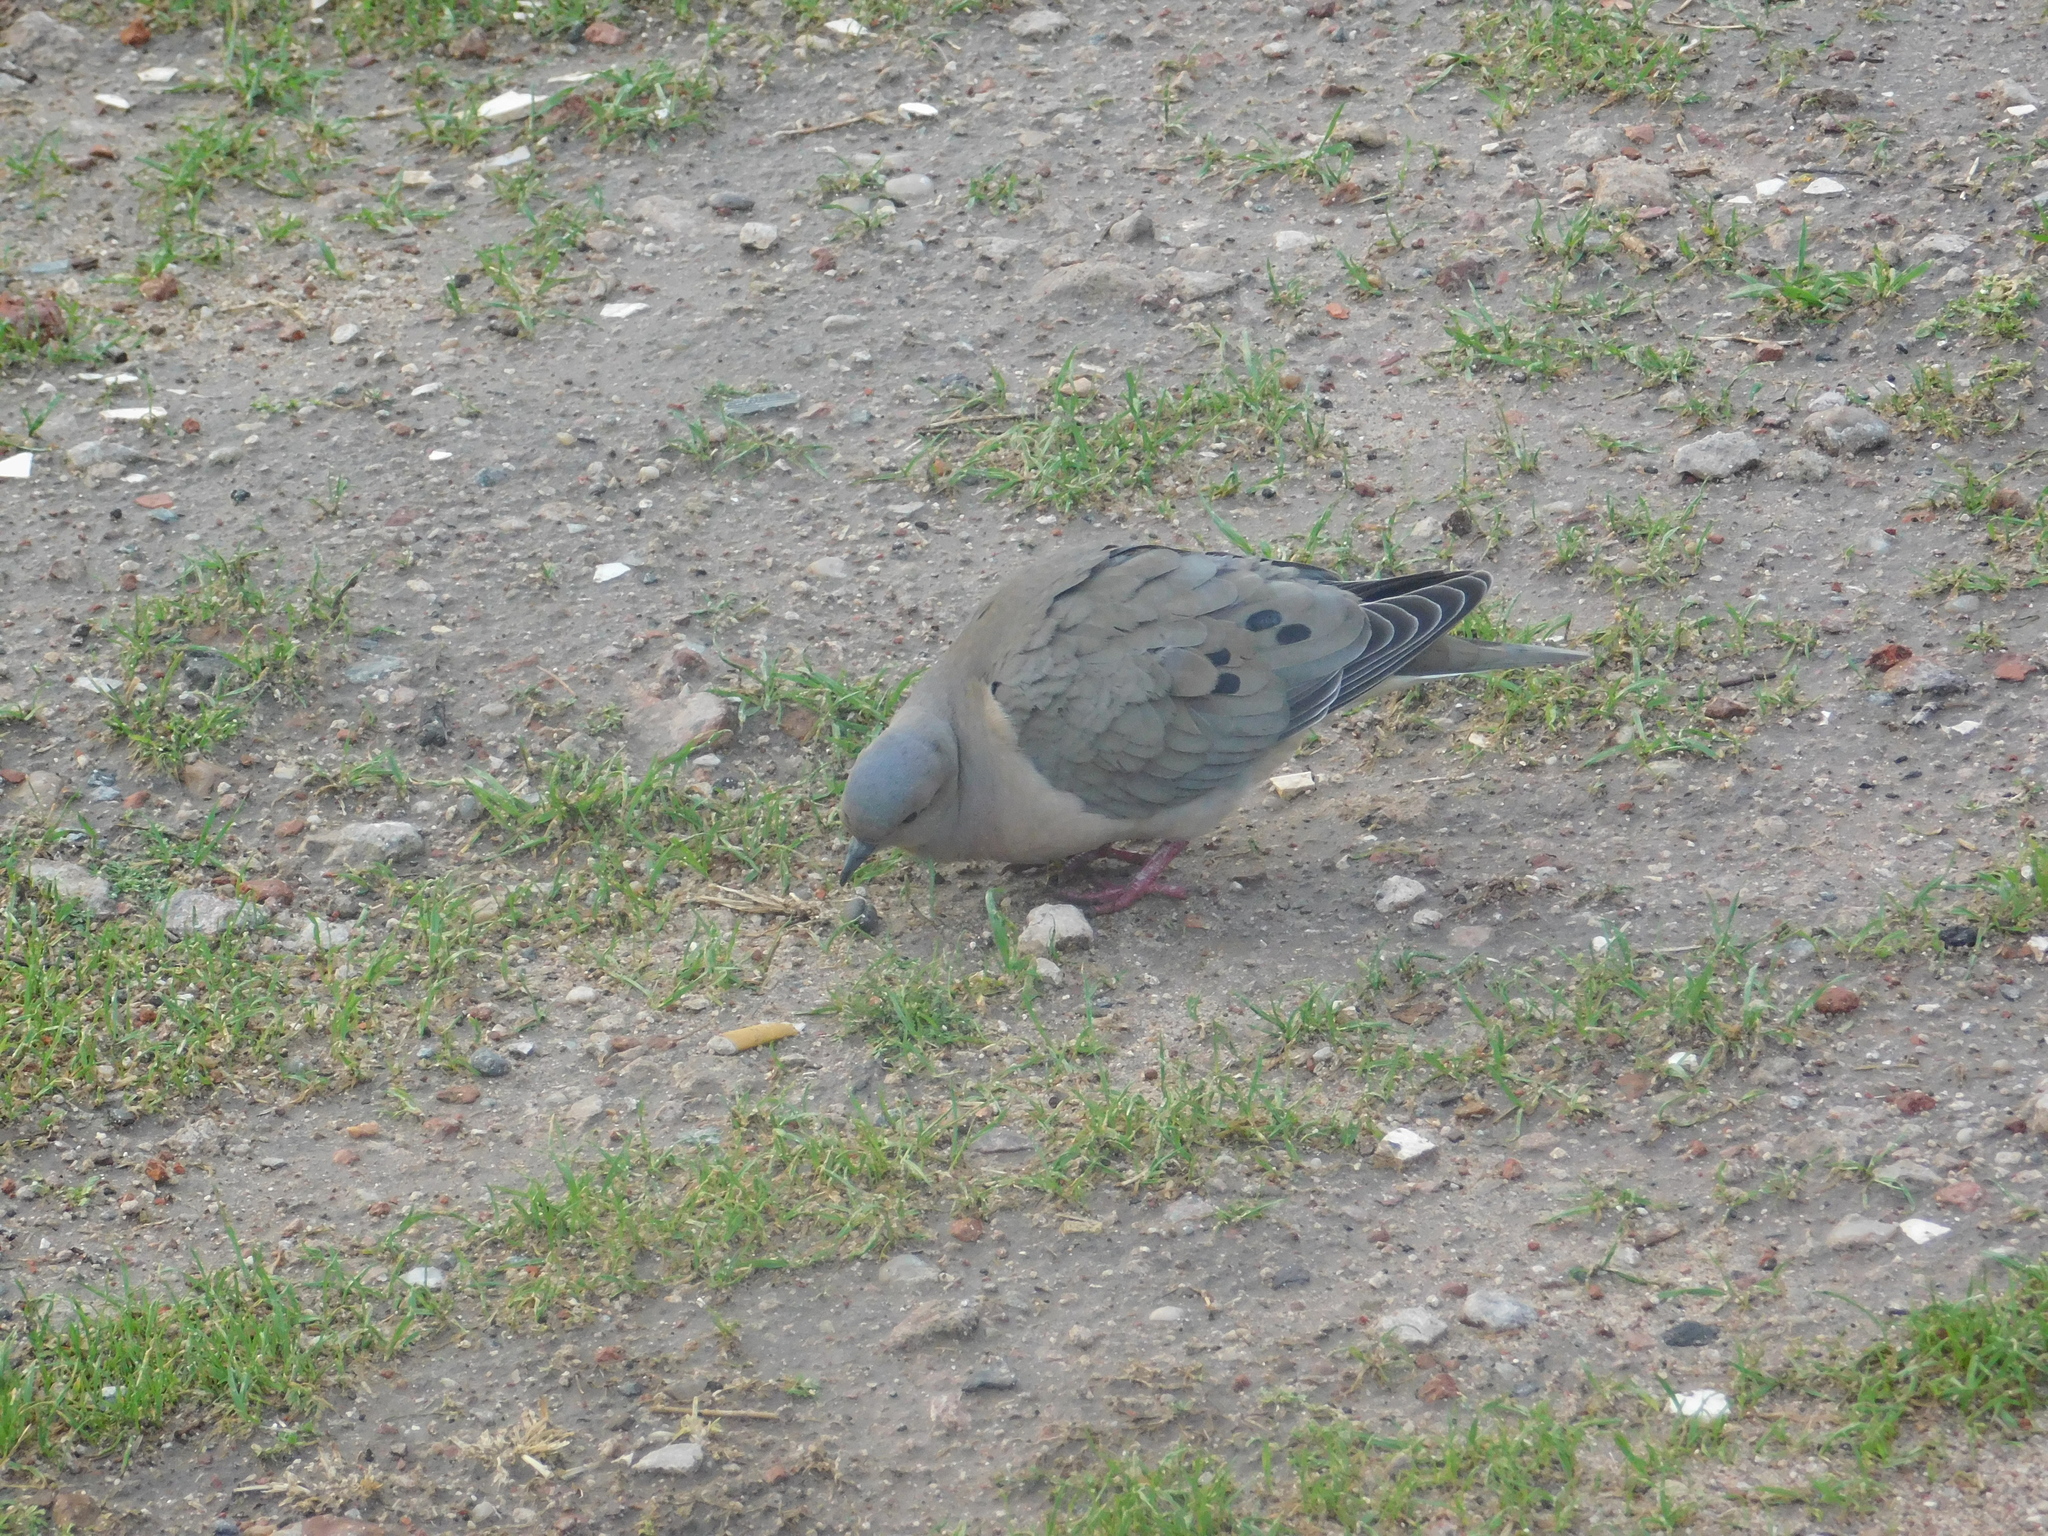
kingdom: Animalia
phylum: Chordata
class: Aves
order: Columbiformes
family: Columbidae
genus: Zenaida
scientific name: Zenaida auriculata
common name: Eared dove
